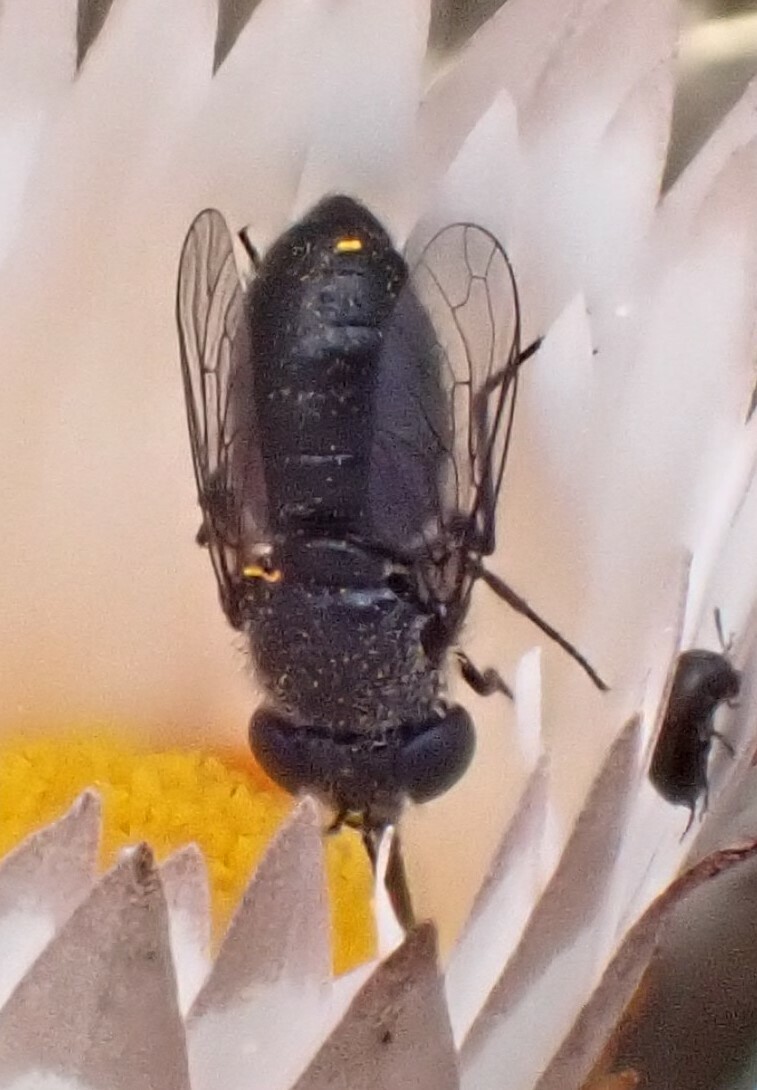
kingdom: Animalia
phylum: Arthropoda
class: Insecta
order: Diptera
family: Bombyliidae
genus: Megapalpus
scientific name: Megapalpus capensis
